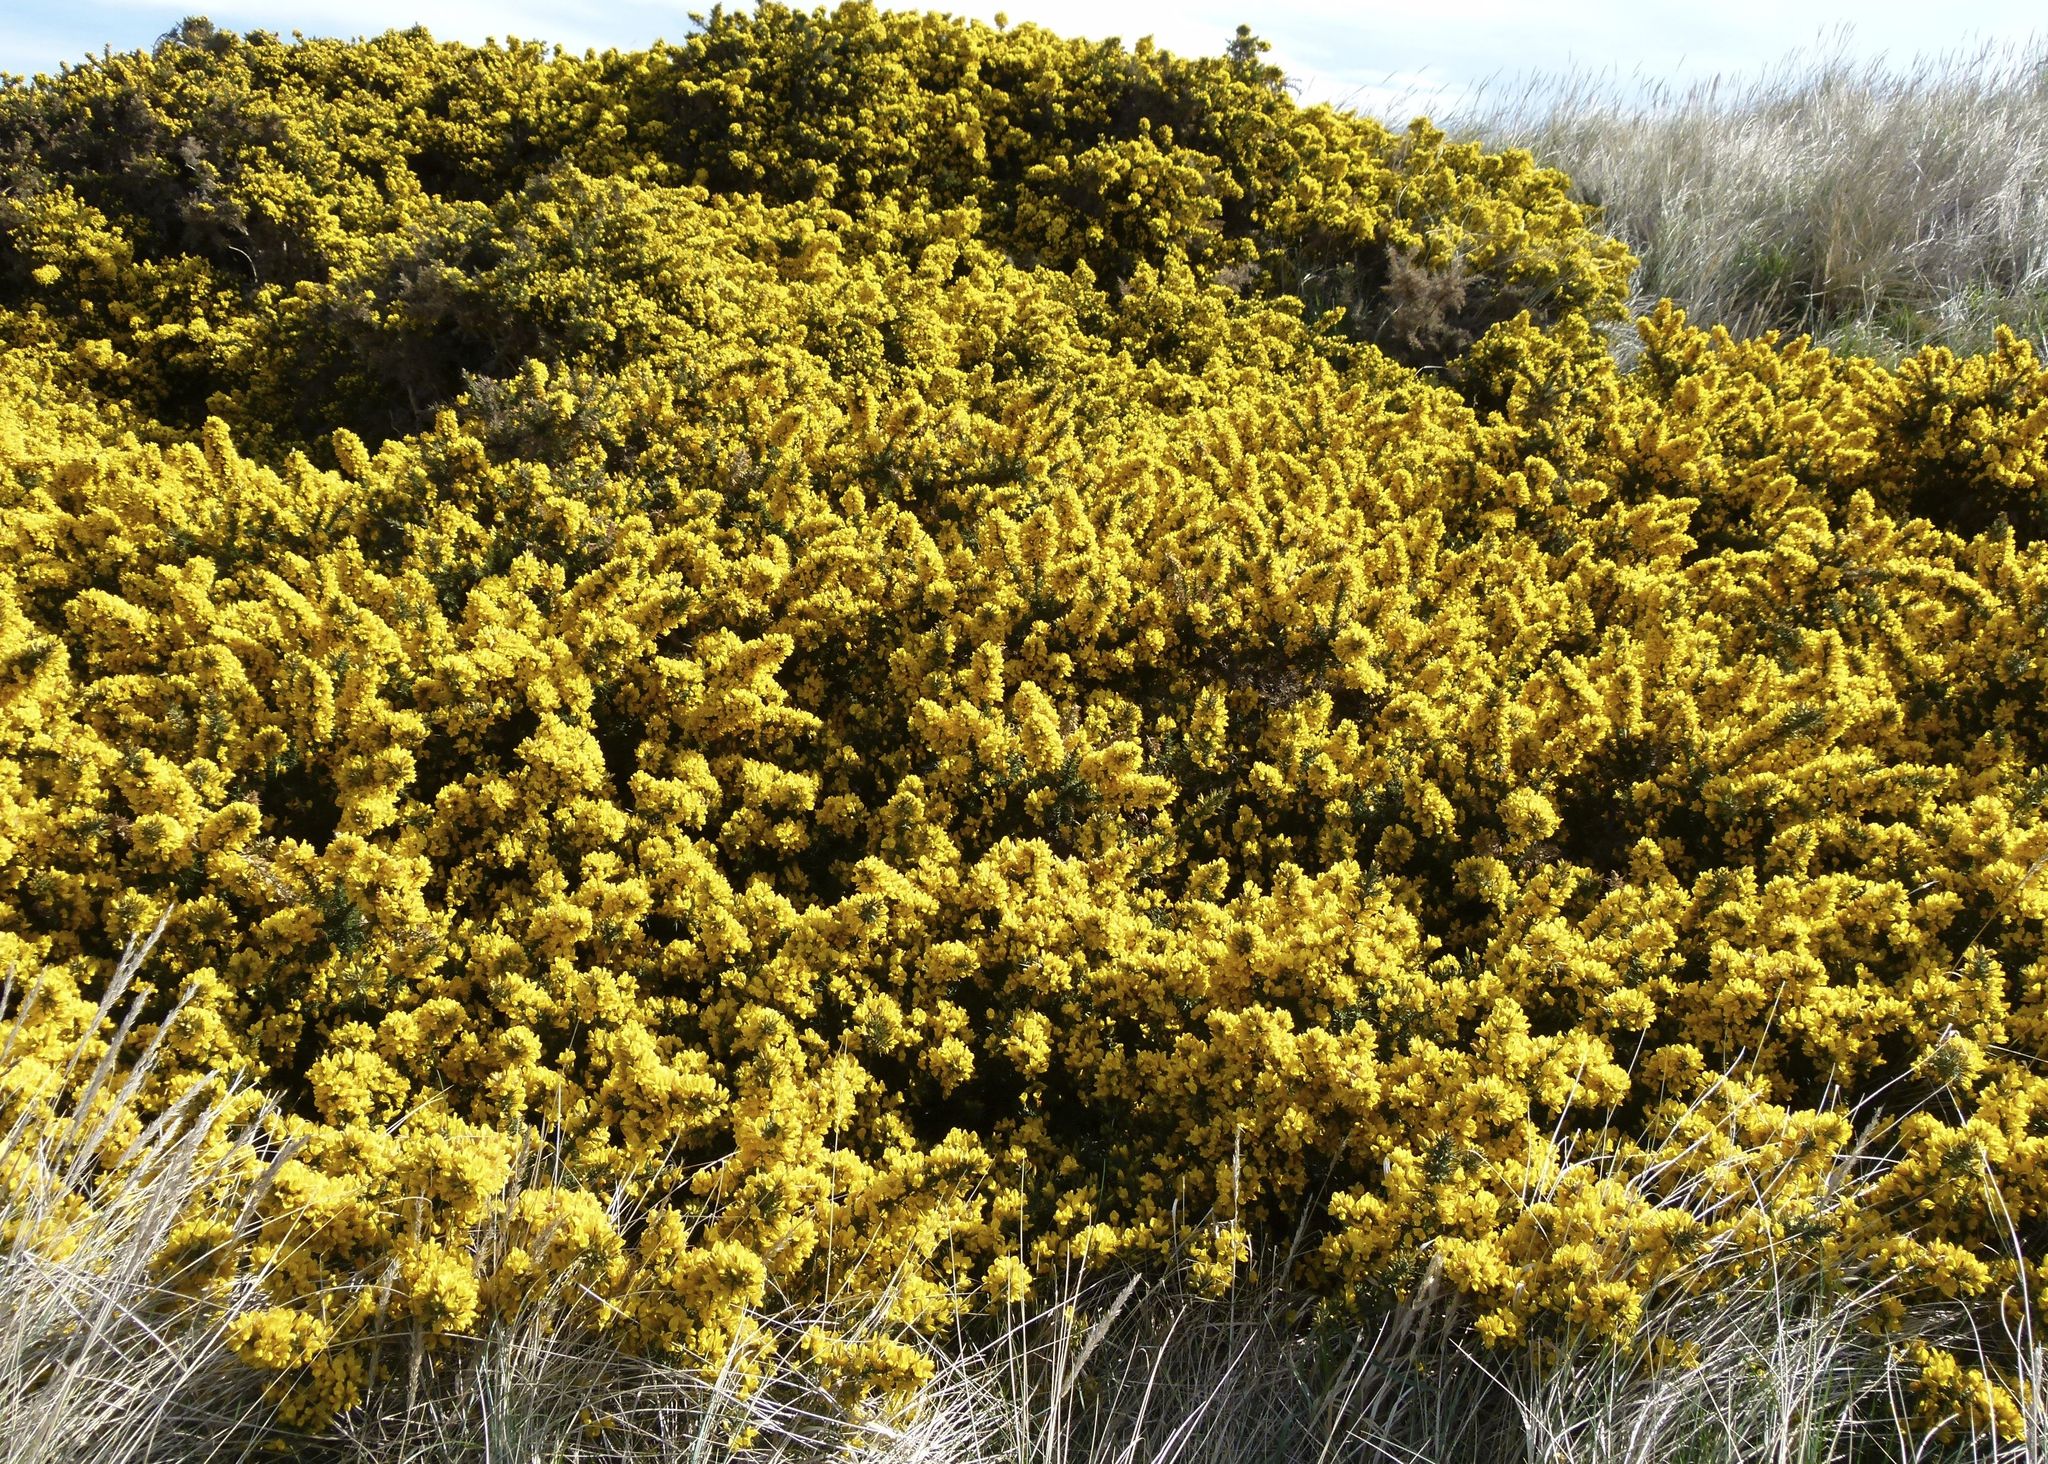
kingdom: Plantae
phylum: Tracheophyta
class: Magnoliopsida
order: Fabales
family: Fabaceae
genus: Ulex
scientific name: Ulex europaeus
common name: Common gorse
